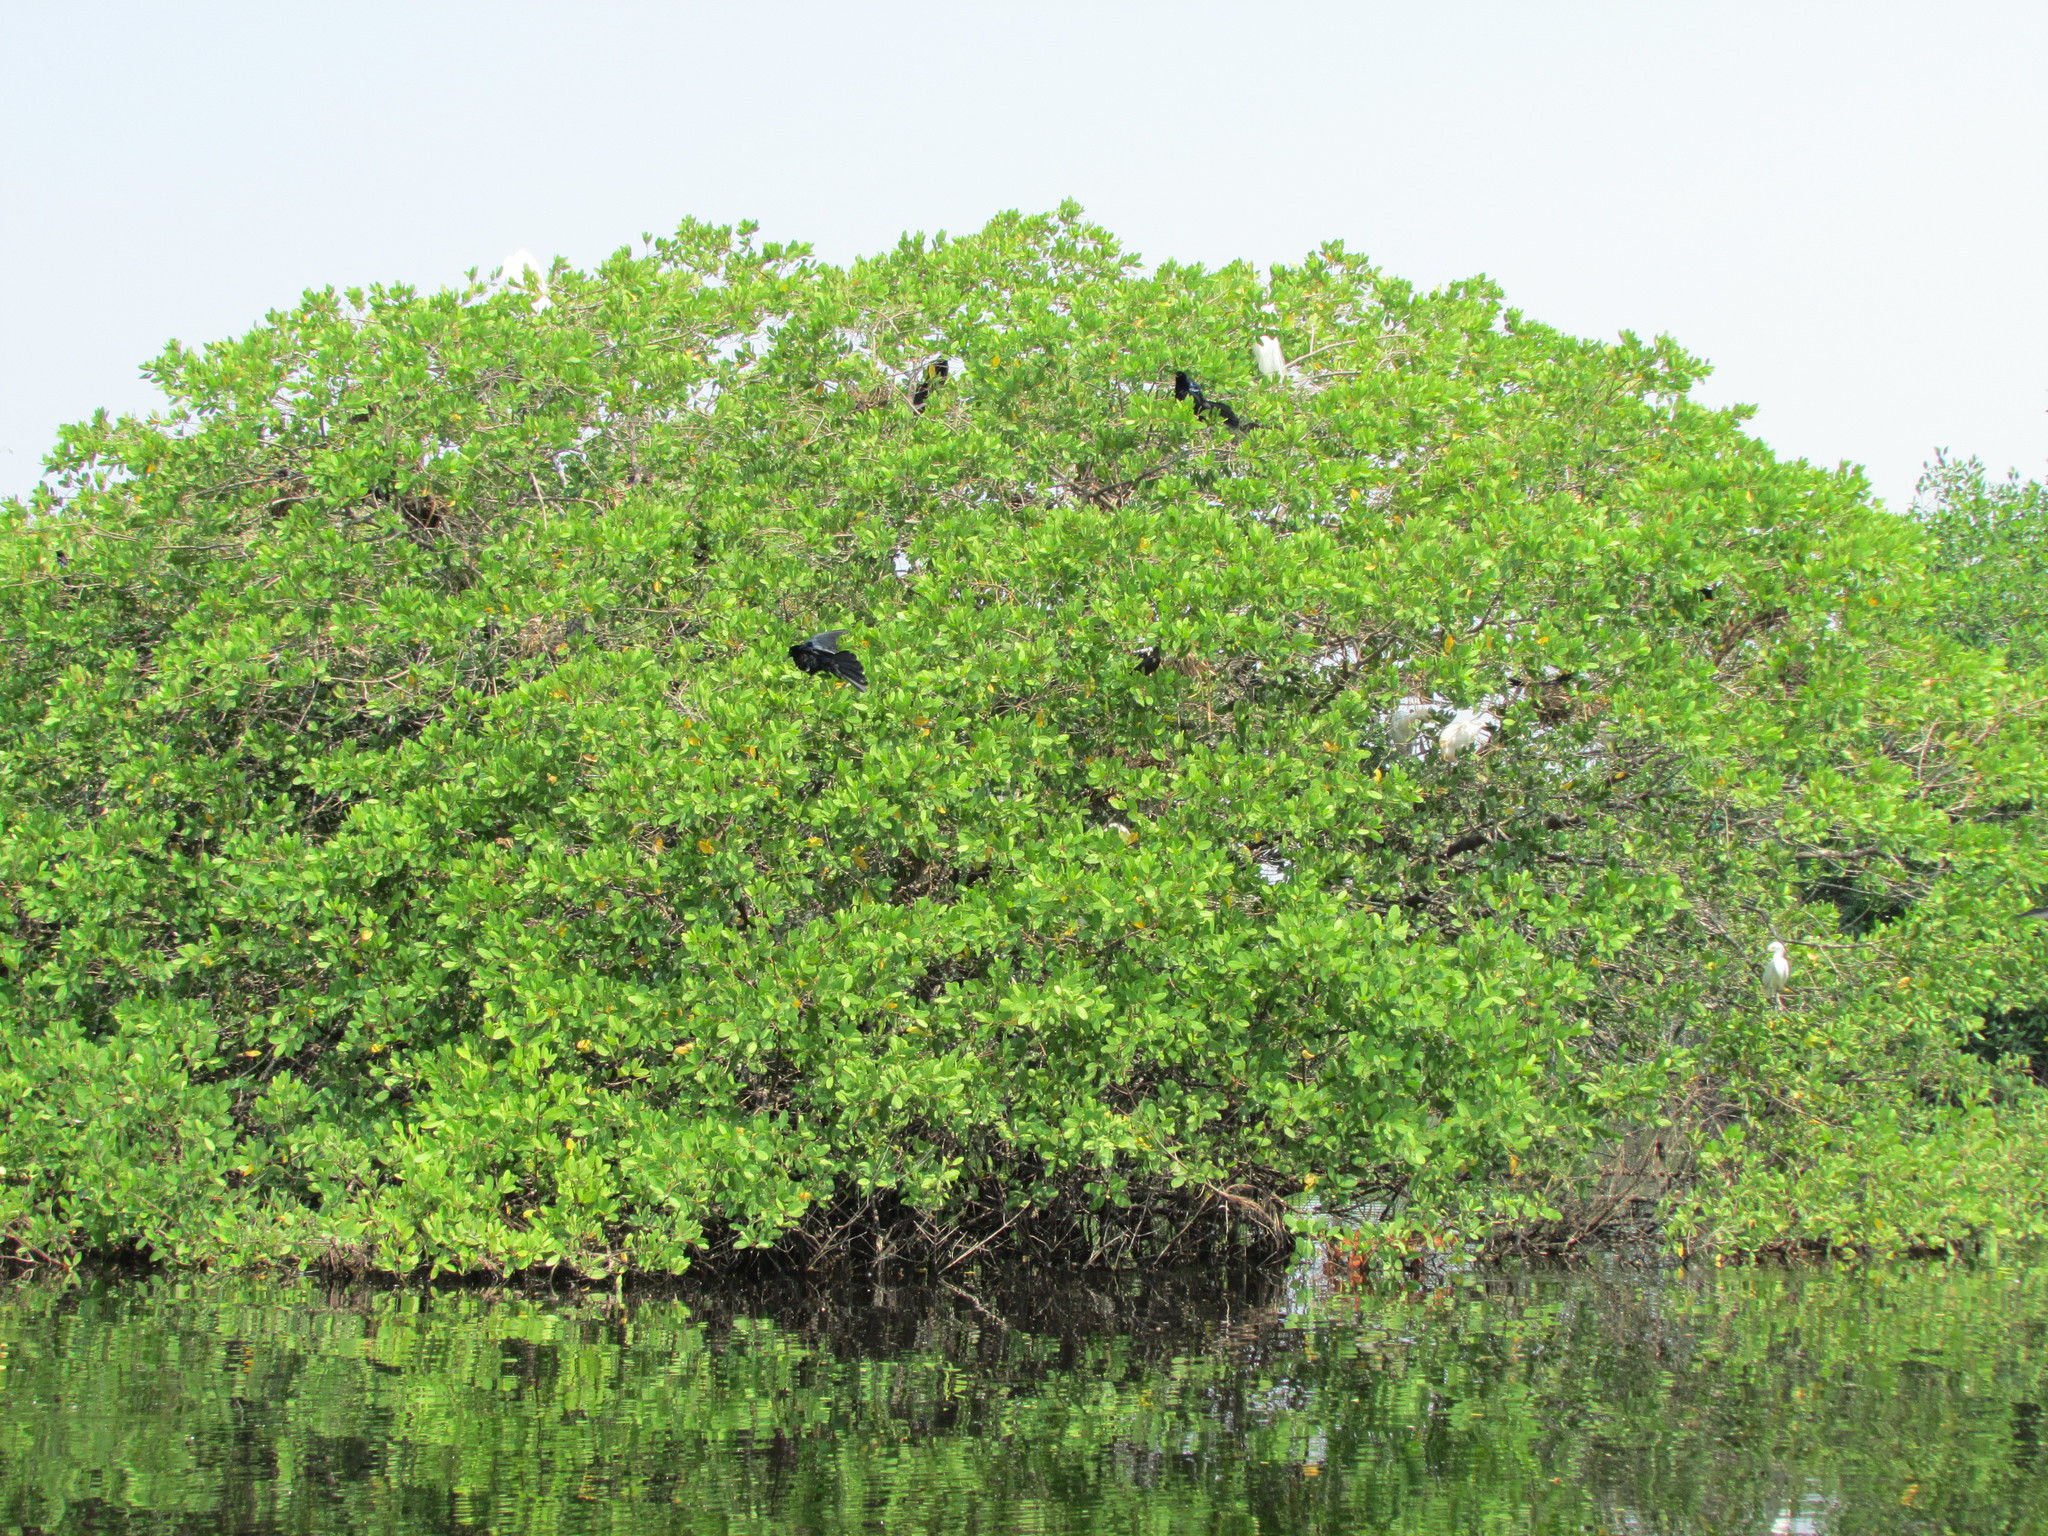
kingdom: Animalia
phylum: Chordata
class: Aves
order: Passeriformes
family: Icteridae
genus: Quiscalus
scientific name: Quiscalus mexicanus
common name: Great-tailed grackle
